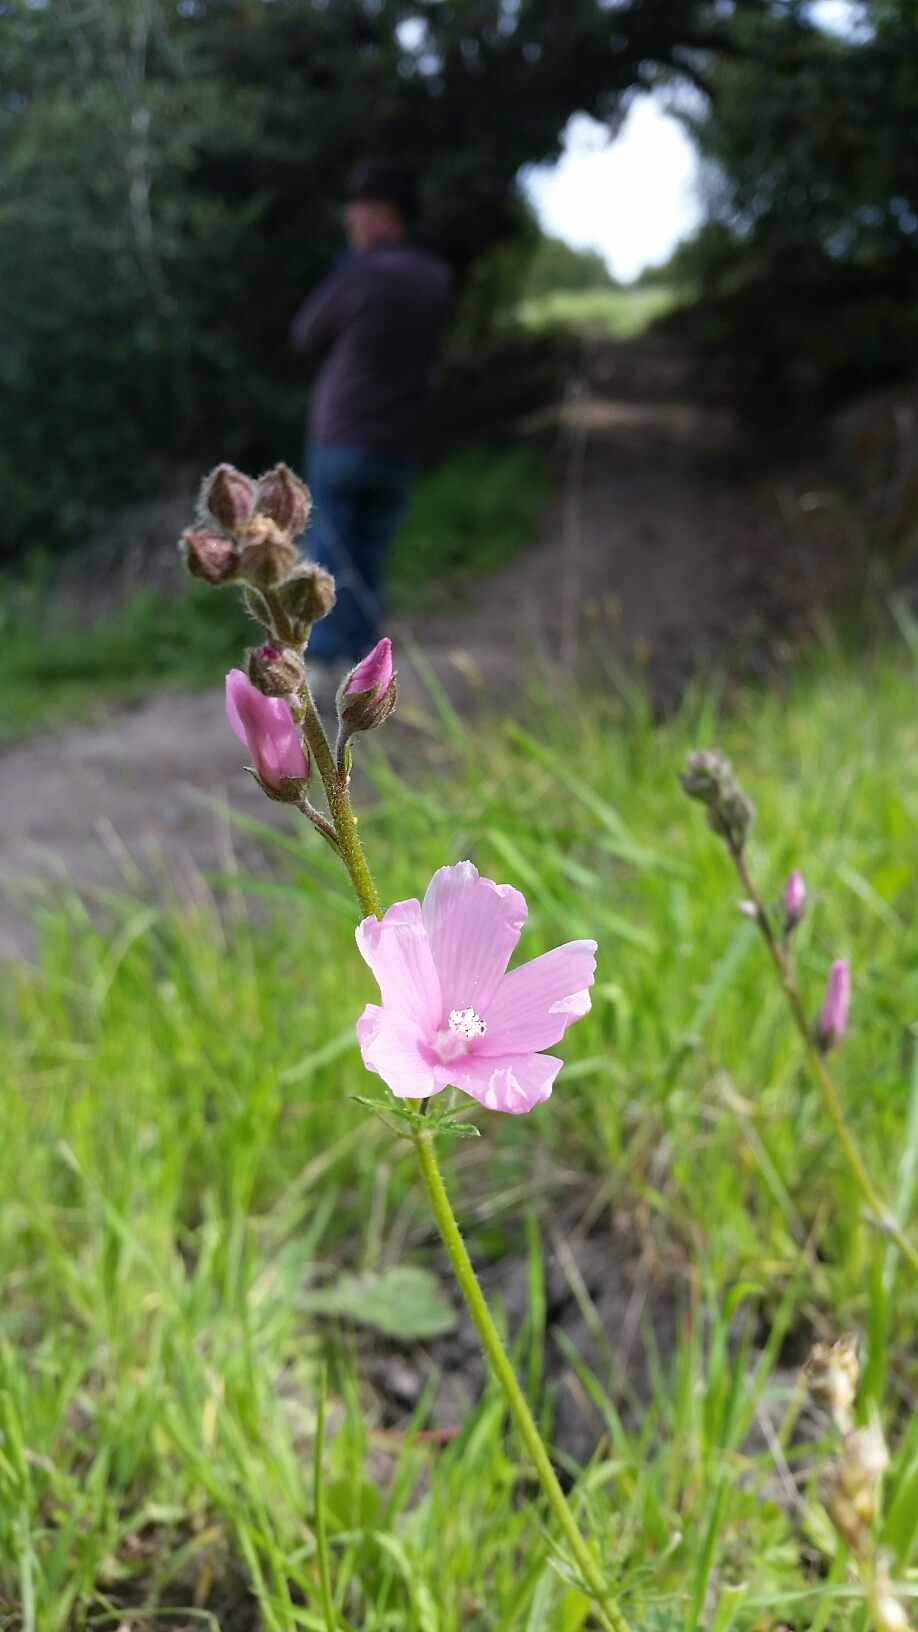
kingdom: Plantae
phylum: Tracheophyta
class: Magnoliopsida
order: Malvales
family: Malvaceae
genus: Sidalcea
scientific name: Sidalcea malviflora
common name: Greek mallow
